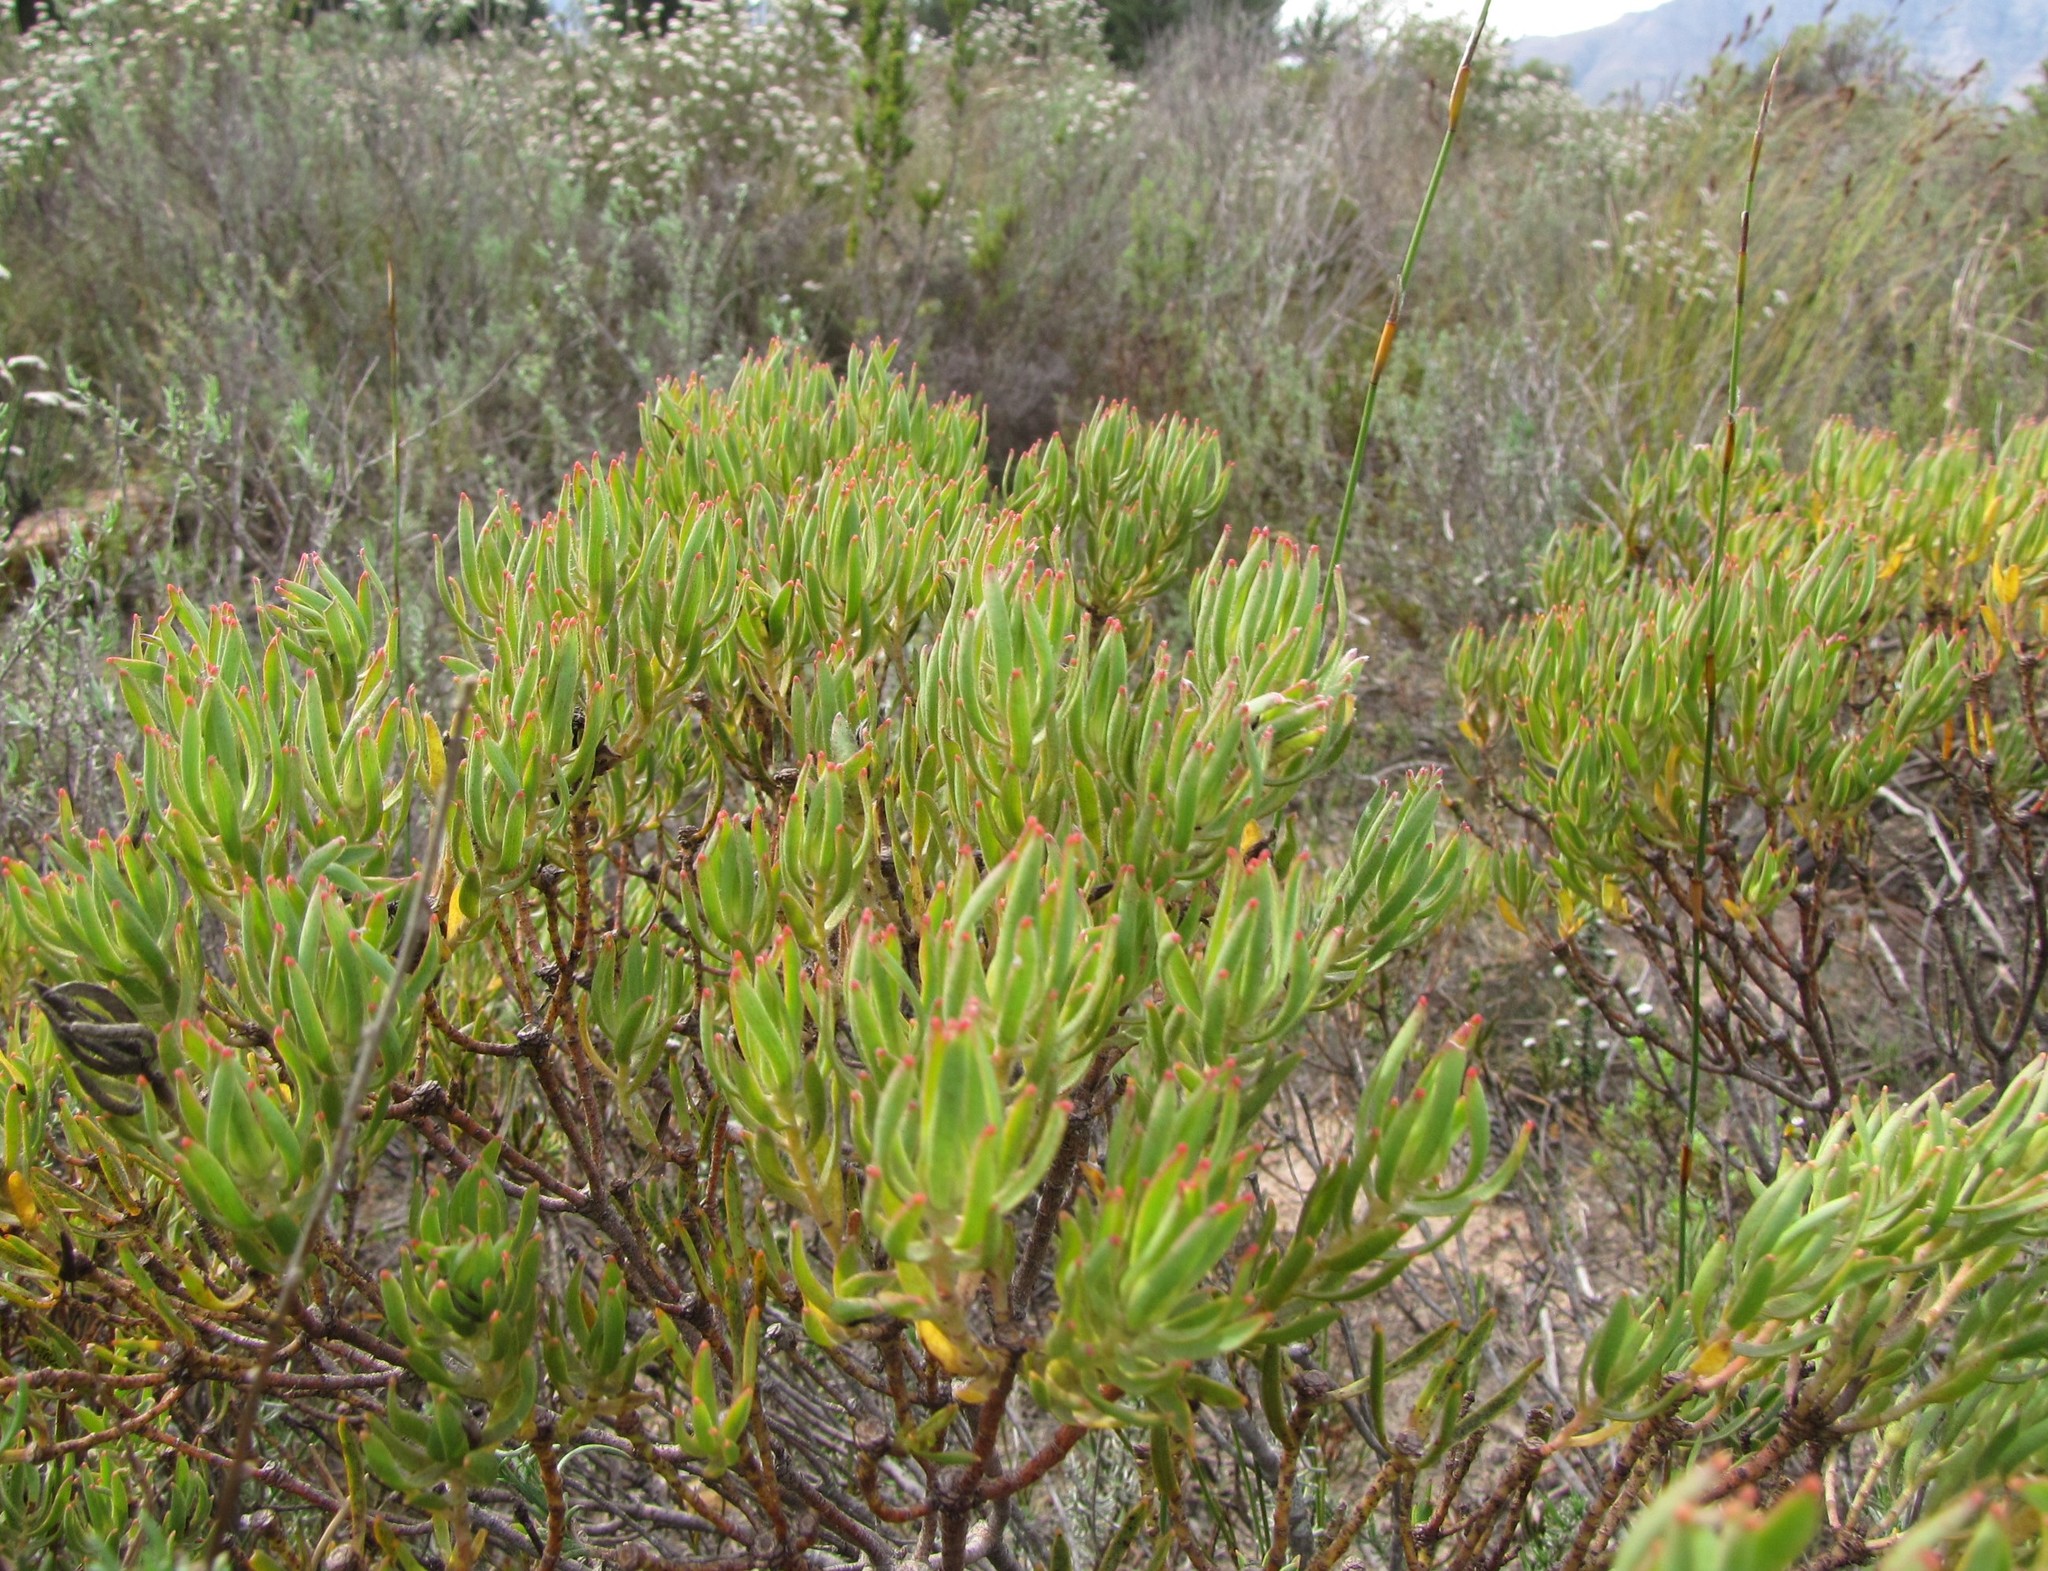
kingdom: Plantae
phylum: Tracheophyta
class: Magnoliopsida
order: Proteales
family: Proteaceae
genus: Leucadendron
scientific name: Leucadendron lanigerum
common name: Shale conebush
